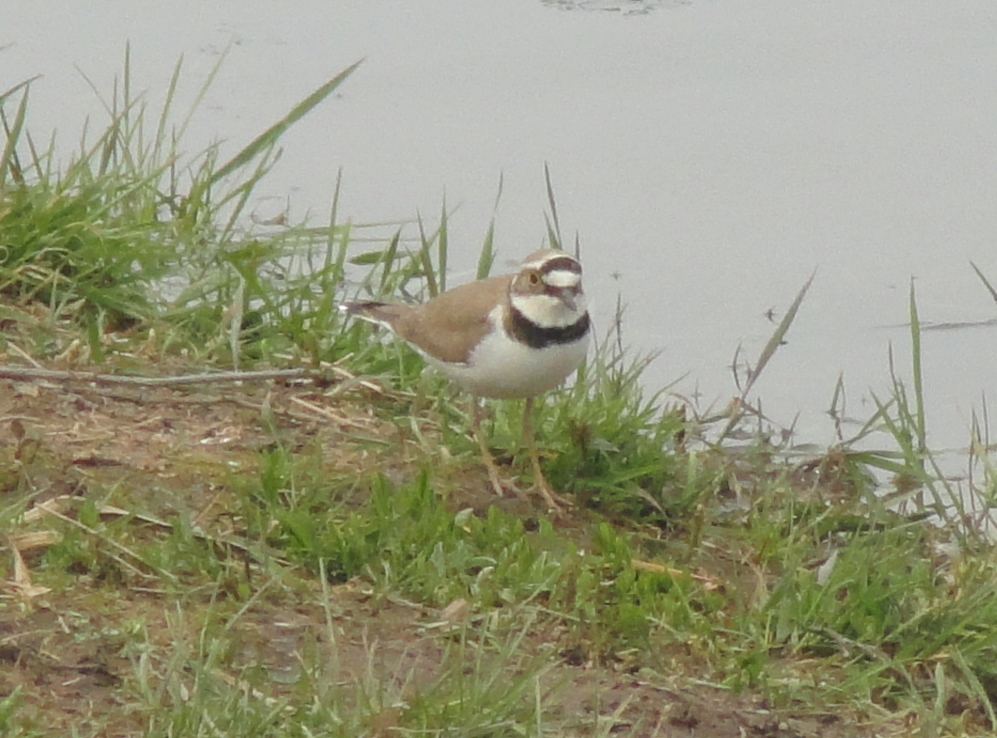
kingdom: Animalia
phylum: Chordata
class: Aves
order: Charadriiformes
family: Charadriidae
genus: Charadrius
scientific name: Charadrius dubius
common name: Little ringed plover
